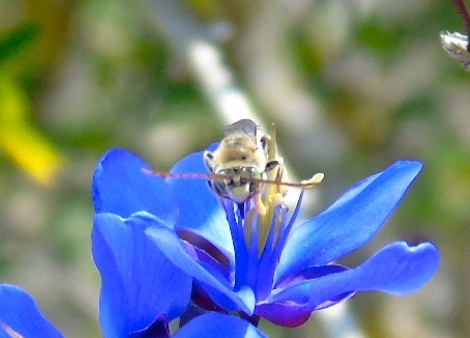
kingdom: Animalia
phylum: Arthropoda
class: Insecta
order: Hymenoptera
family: Apidae
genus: Apidae
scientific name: Apidae
